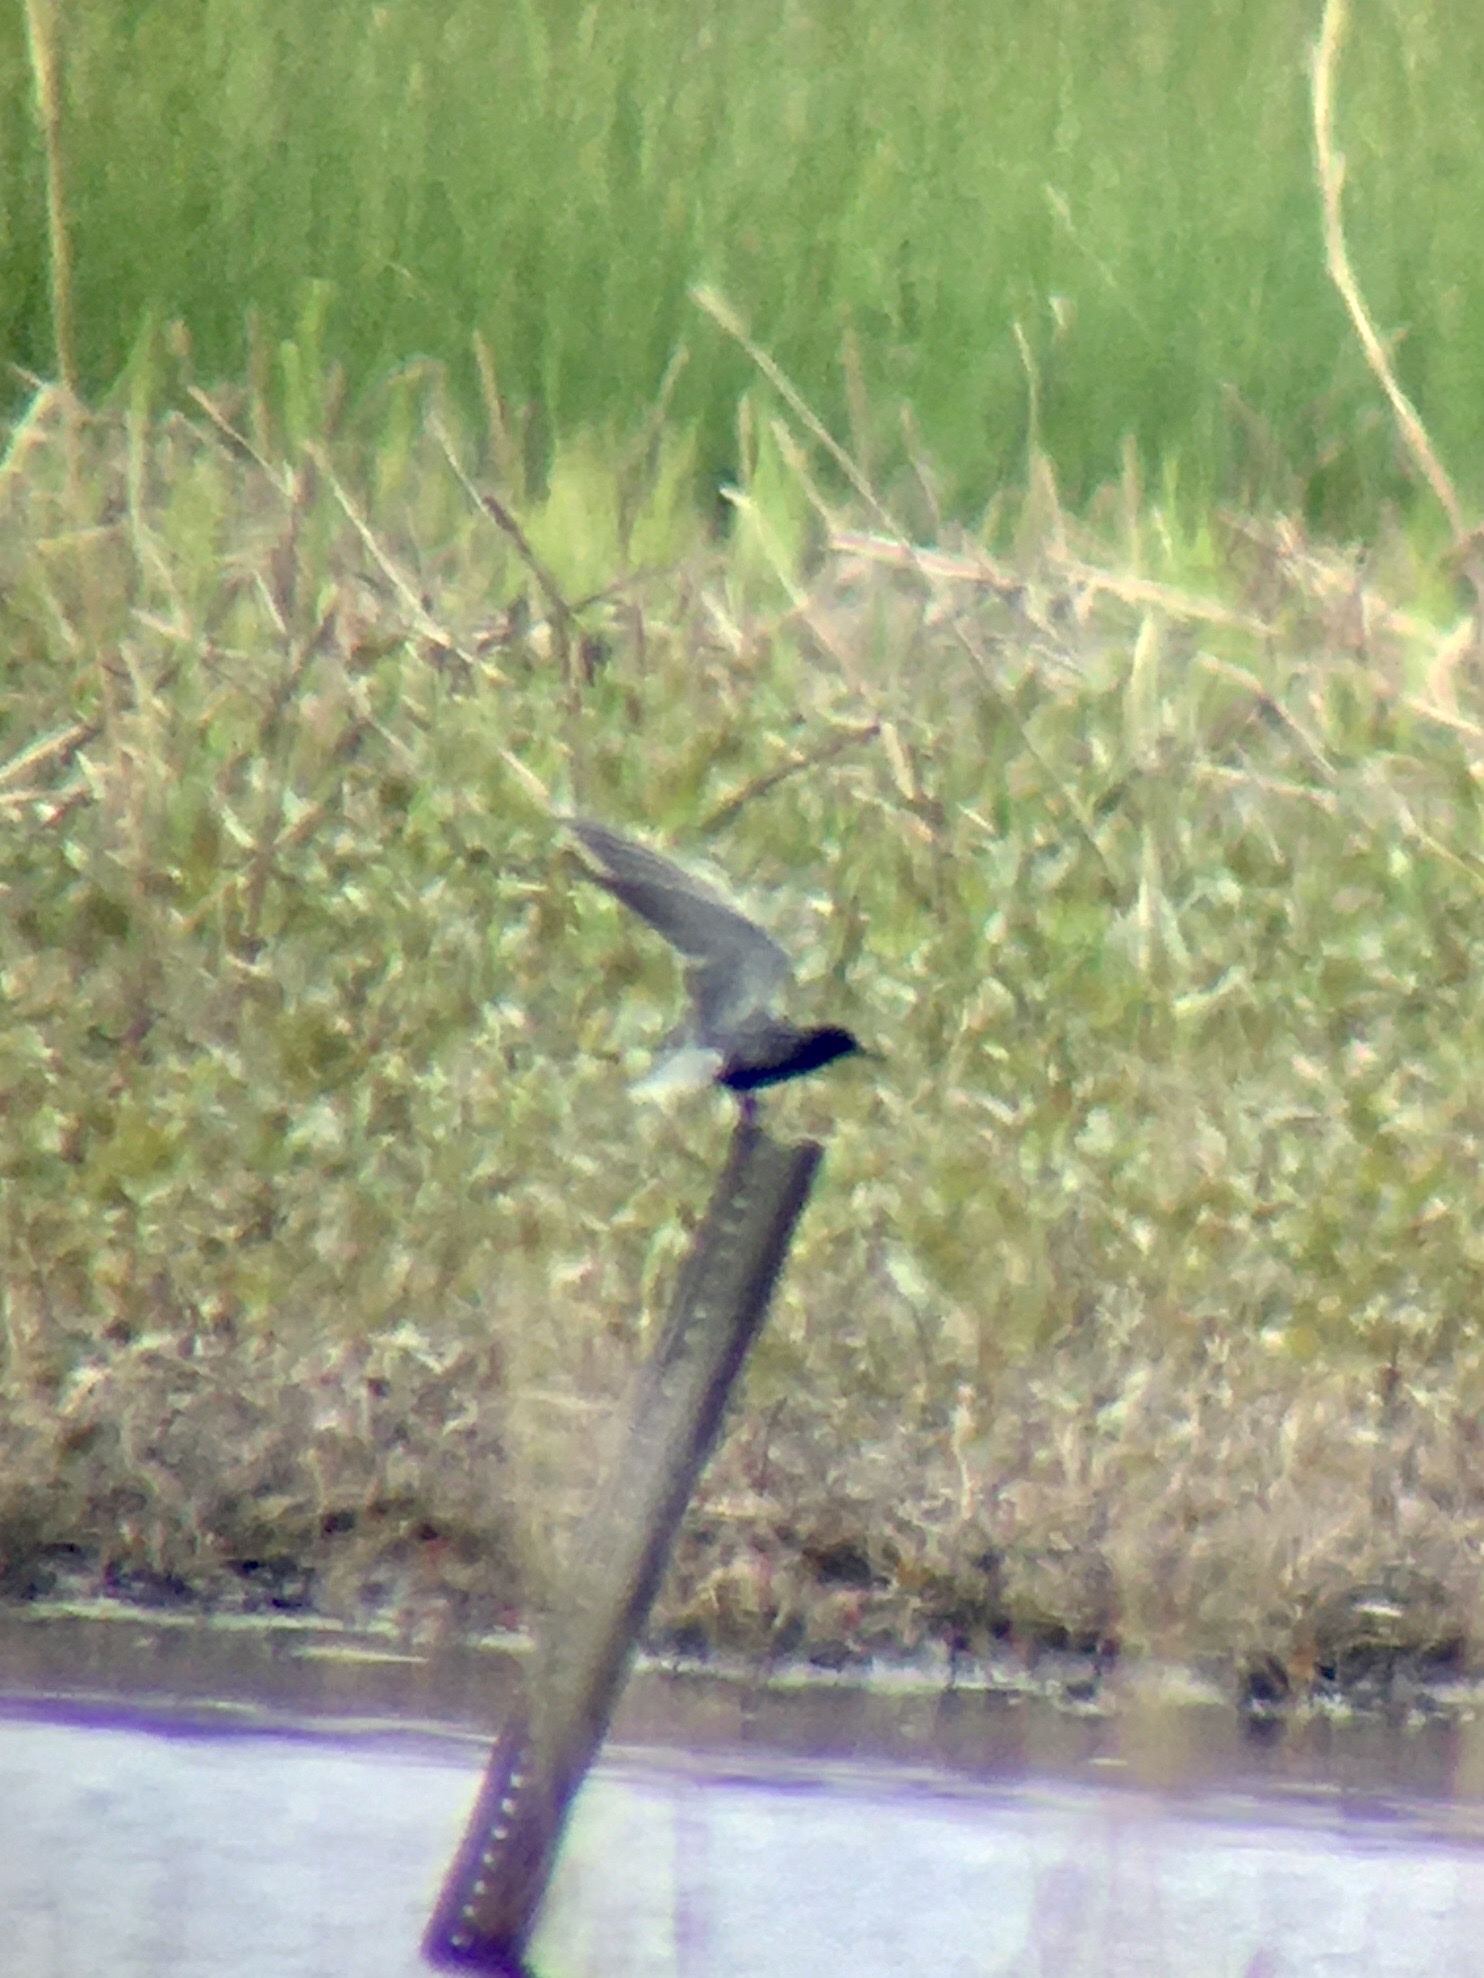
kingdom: Animalia
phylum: Chordata
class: Aves
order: Charadriiformes
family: Laridae
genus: Chlidonias
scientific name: Chlidonias niger
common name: Black tern
